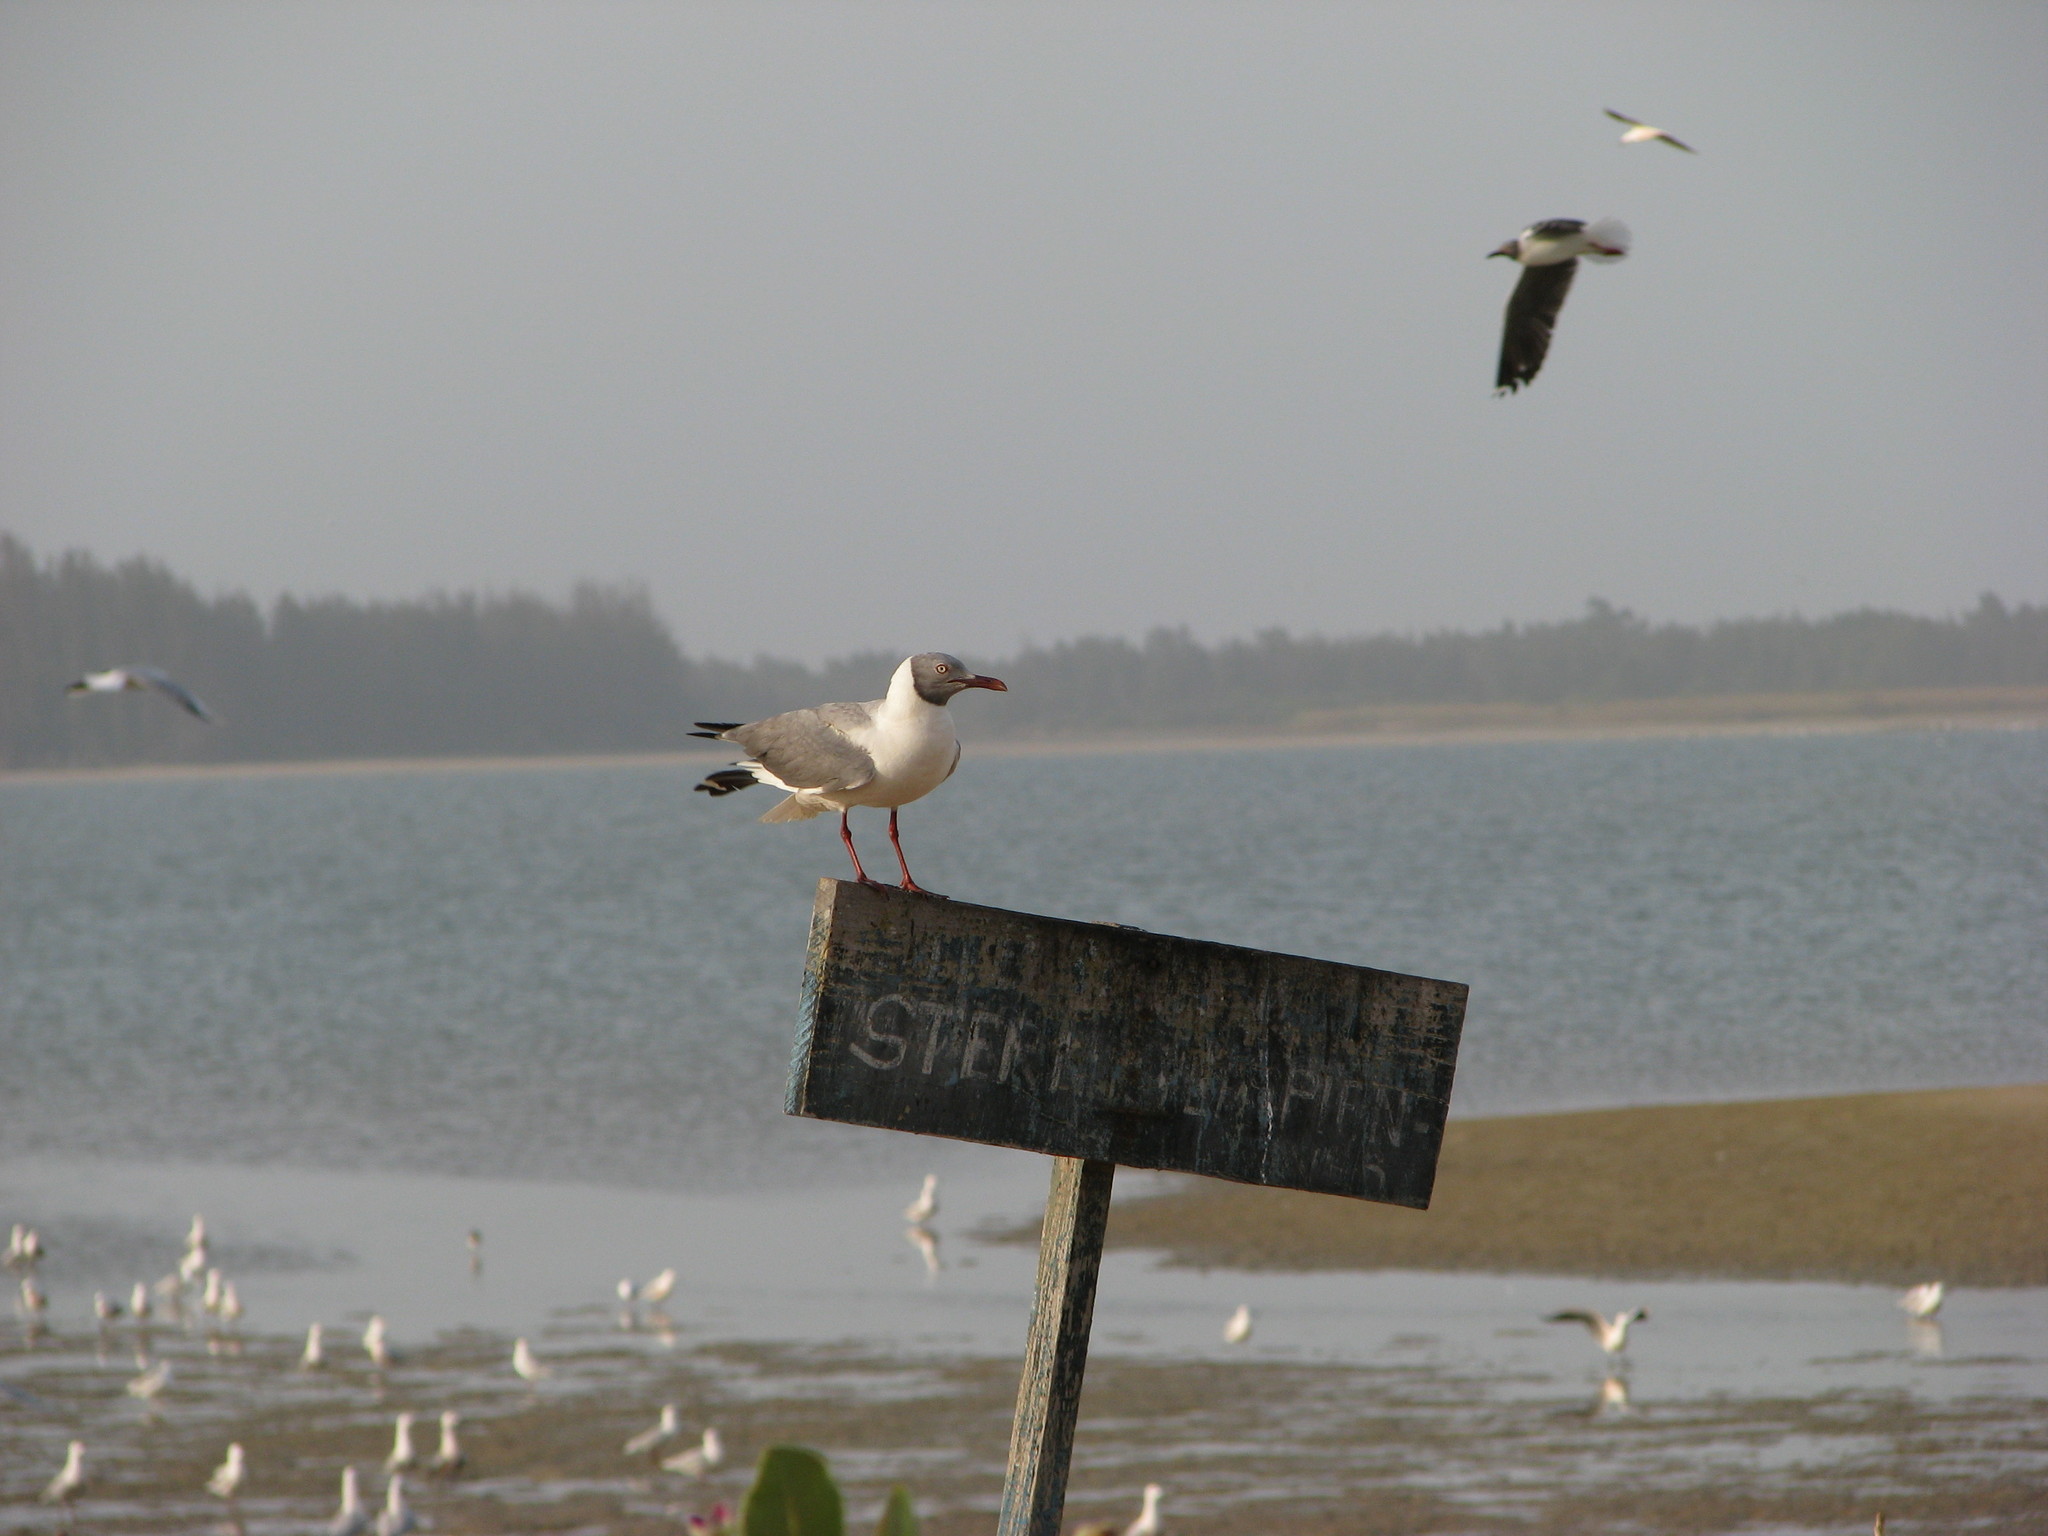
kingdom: Animalia
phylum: Chordata
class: Aves
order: Charadriiformes
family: Laridae
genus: Chroicocephalus
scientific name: Chroicocephalus cirrocephalus
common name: Grey-headed gull
